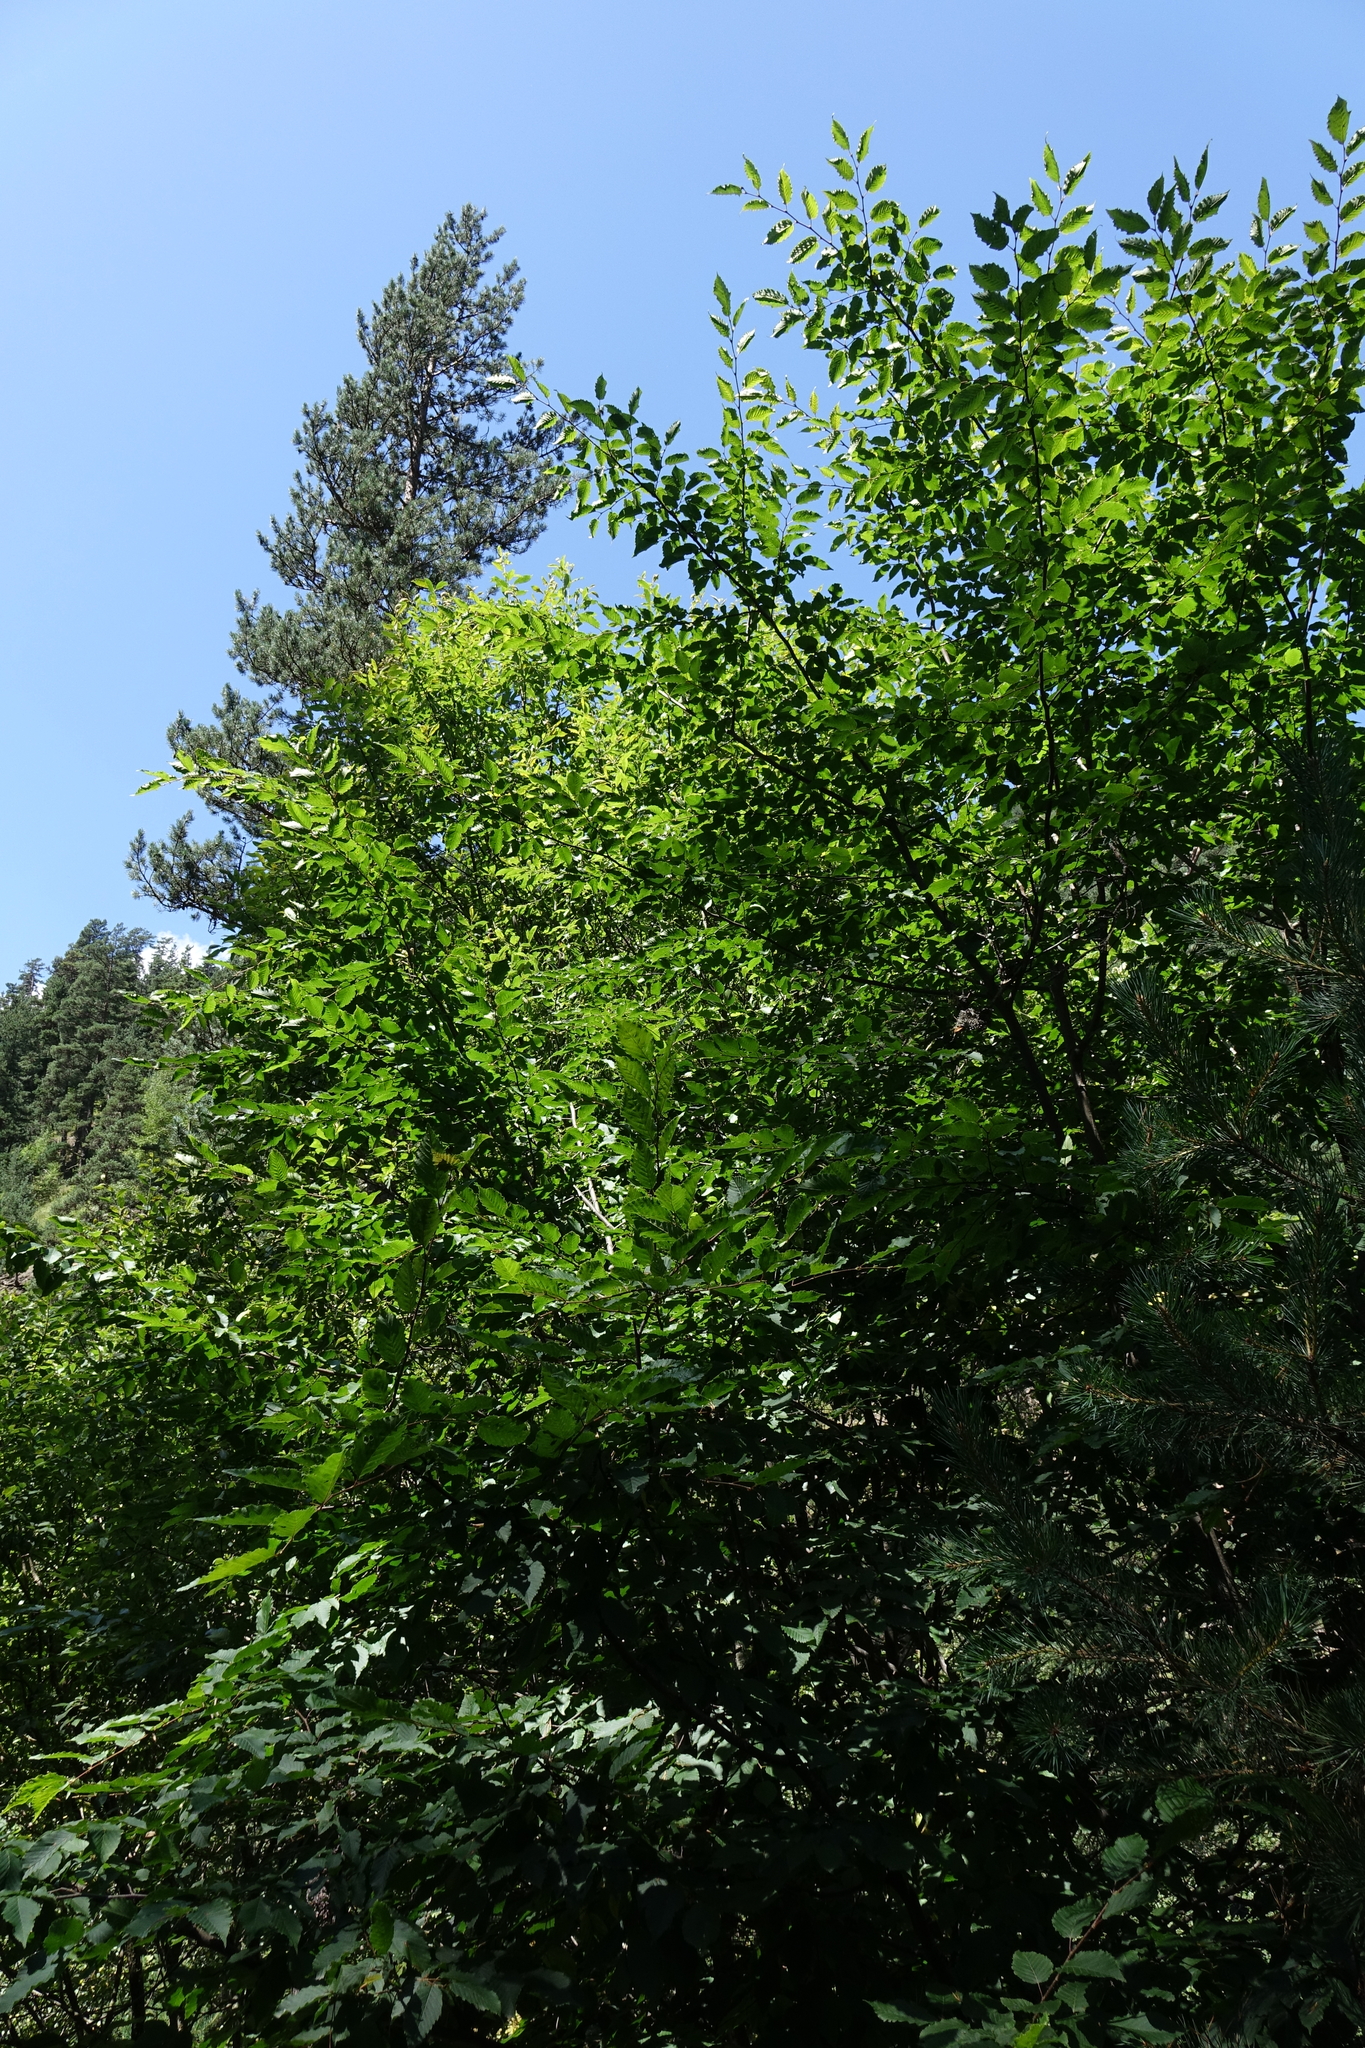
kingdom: Plantae
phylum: Tracheophyta
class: Magnoliopsida
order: Fagales
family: Fagaceae
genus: Fagus
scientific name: Fagus orientalis
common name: Oriental beech
